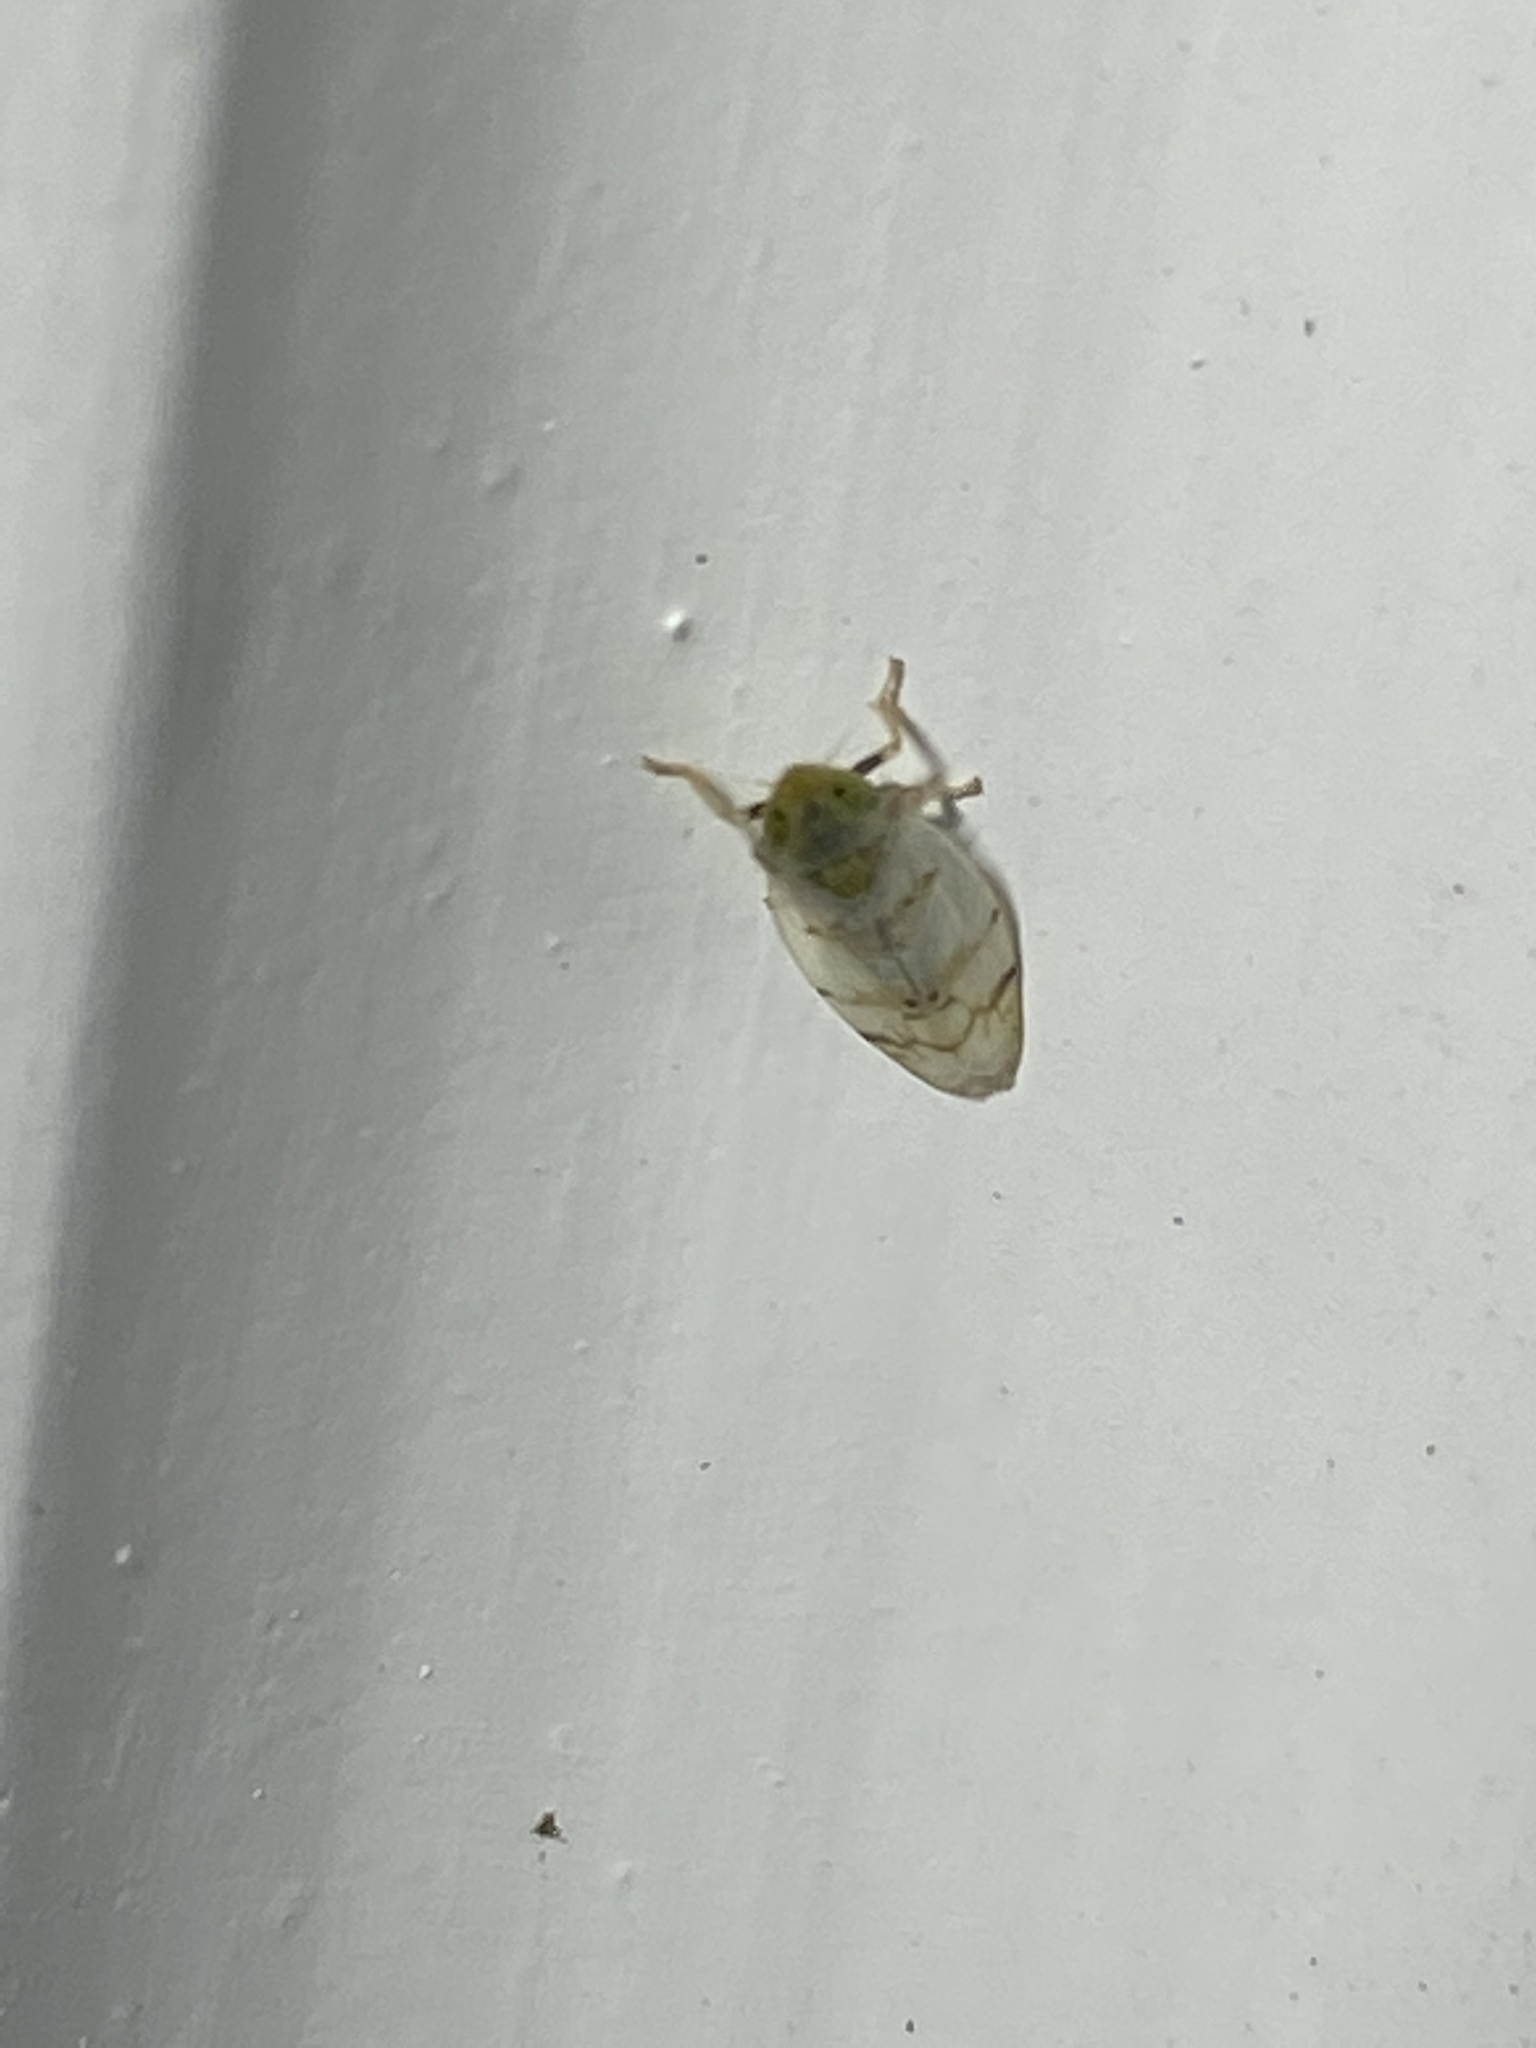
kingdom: Animalia
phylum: Arthropoda
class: Insecta
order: Hemiptera
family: Cicadellidae
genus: Japananus
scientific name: Japananus hyalinus
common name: The japanese maple leafhopper
